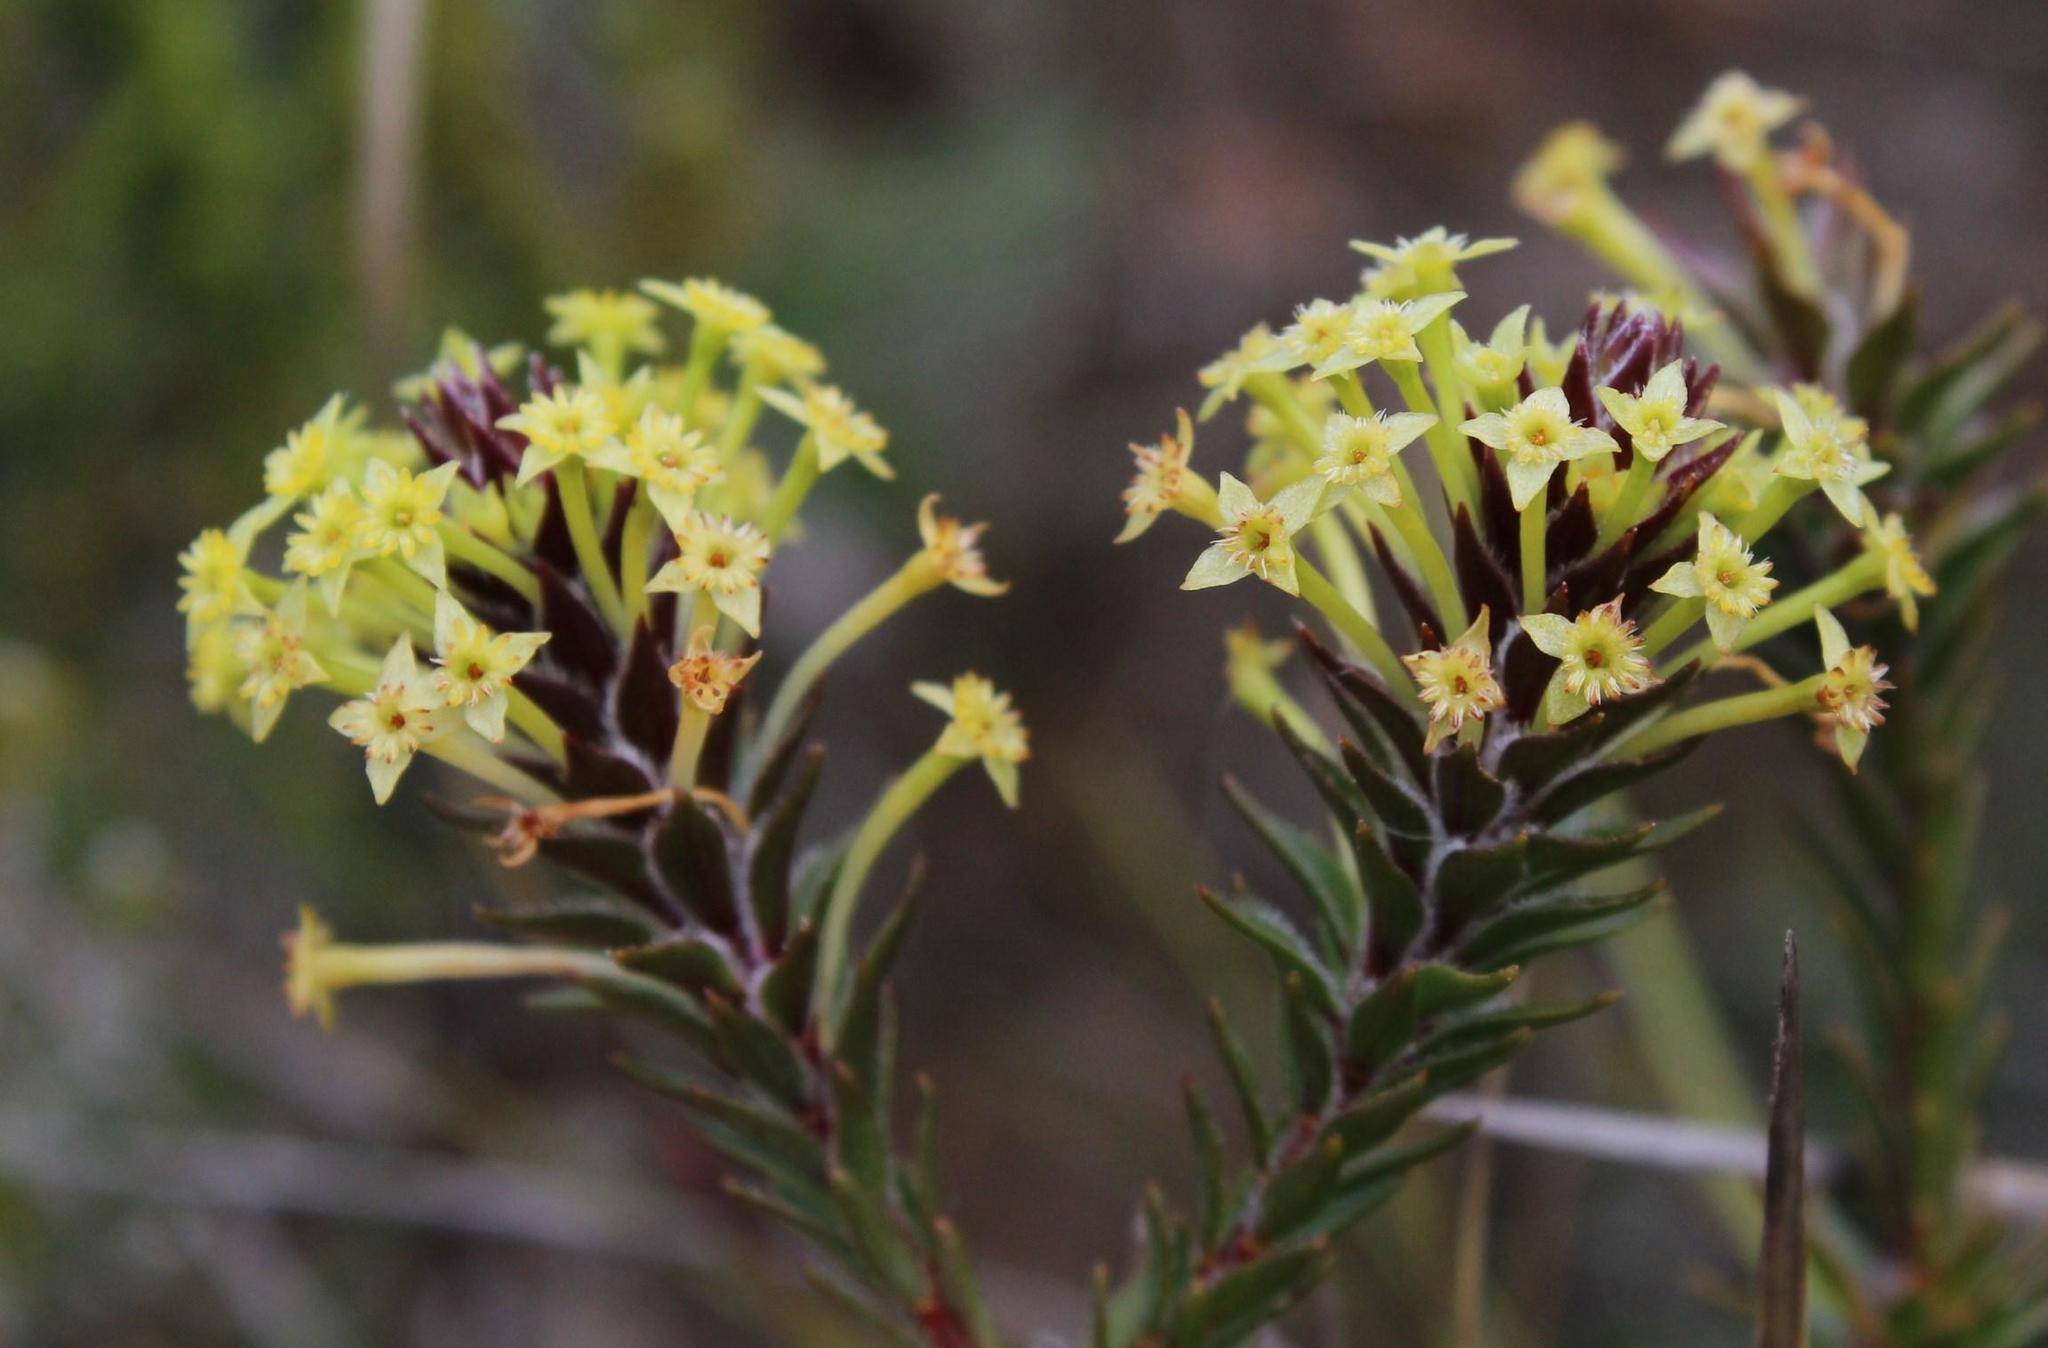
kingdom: Plantae
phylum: Tracheophyta
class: Magnoliopsida
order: Malvales
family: Thymelaeaceae
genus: Struthiola
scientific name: Struthiola mundtii
